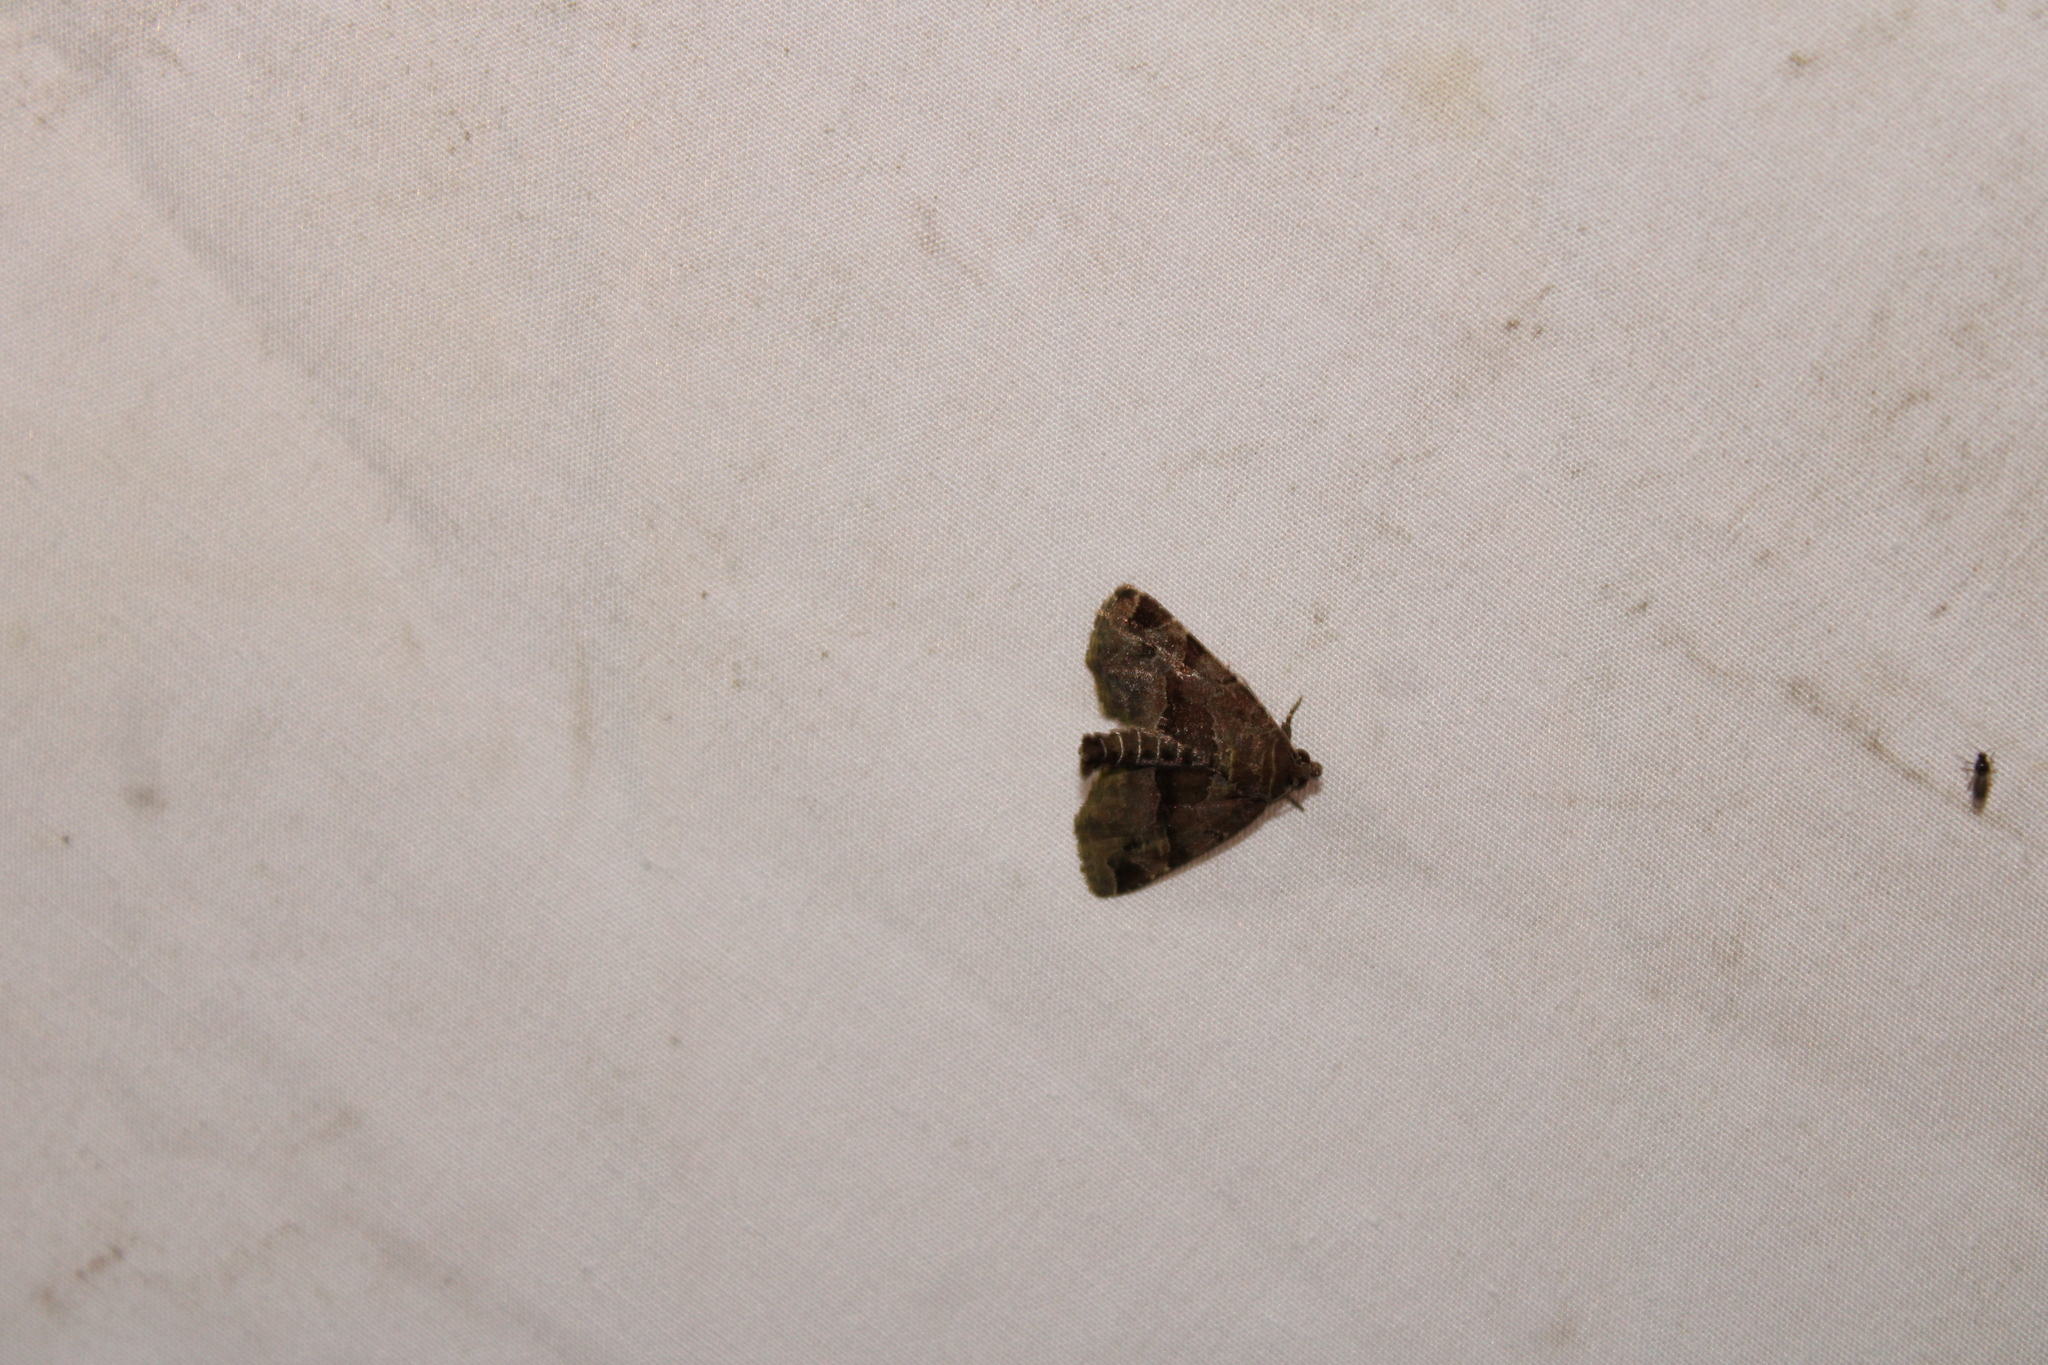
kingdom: Animalia
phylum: Arthropoda
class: Insecta
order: Lepidoptera
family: Noctuidae
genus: Niphonyx
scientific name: Niphonyx segregata
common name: Hops angleshade moth
